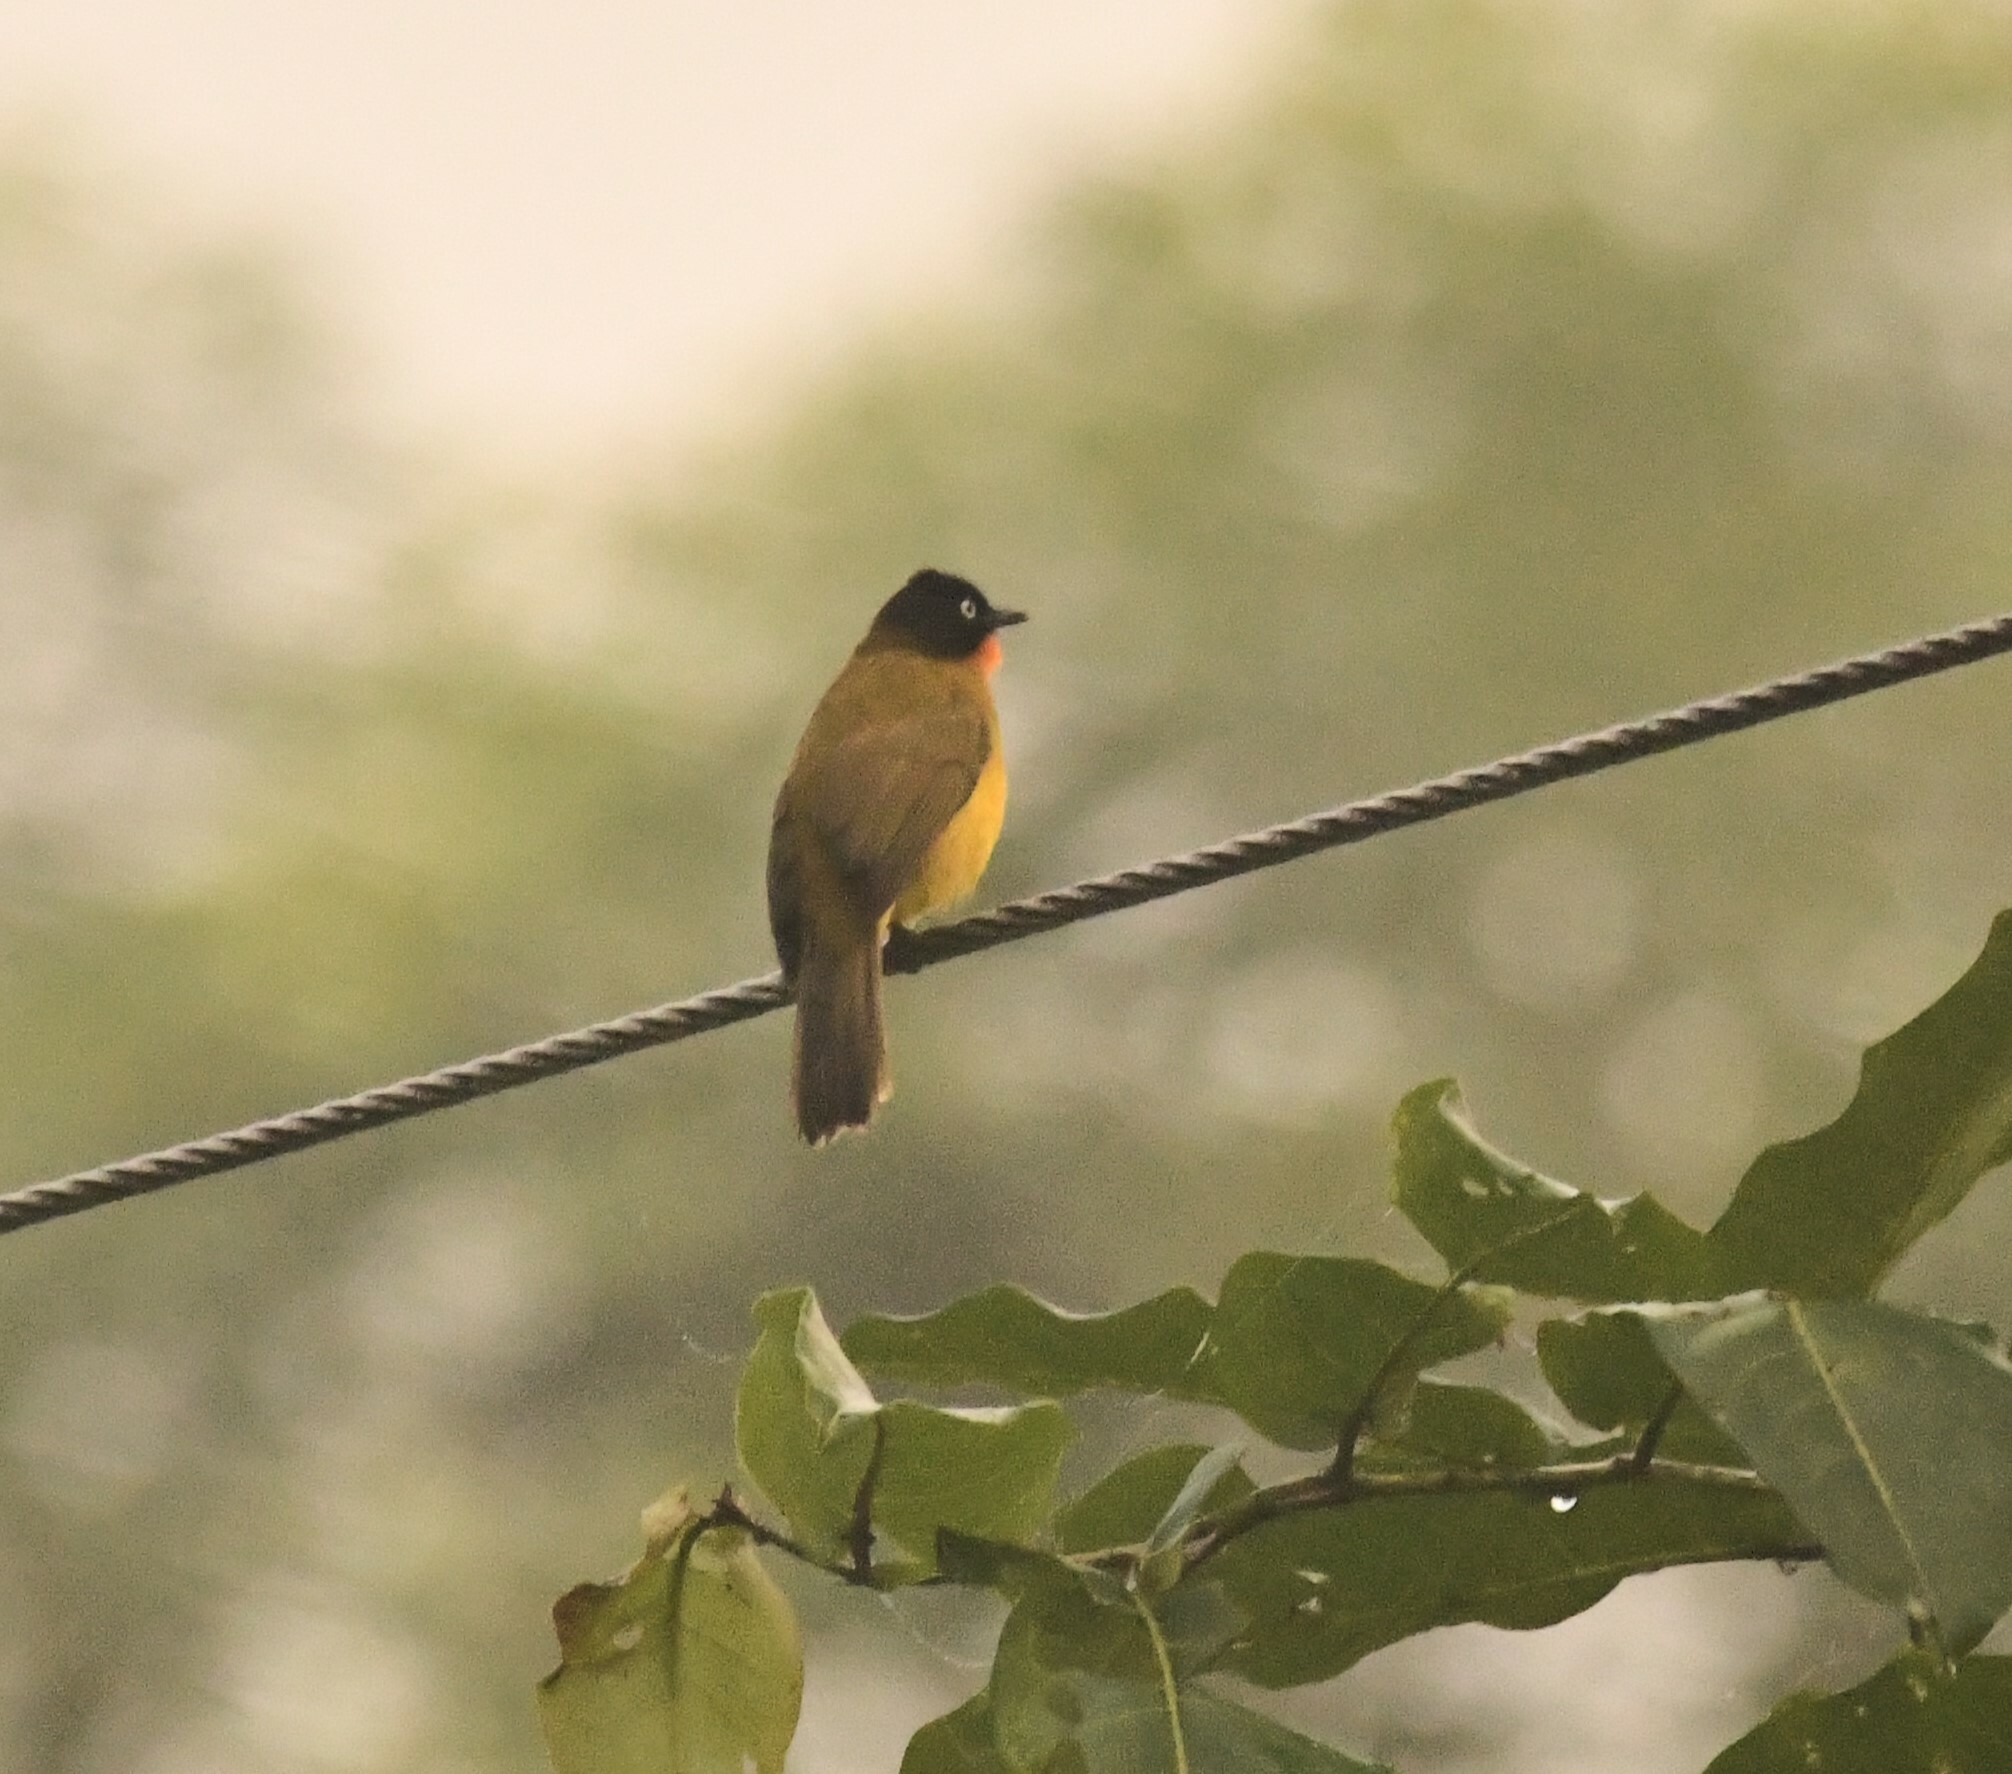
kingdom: Animalia
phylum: Chordata
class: Aves
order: Passeriformes
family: Pycnonotidae
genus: Pycnonotus
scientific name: Pycnonotus gularis
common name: Flame-throated bulbul
